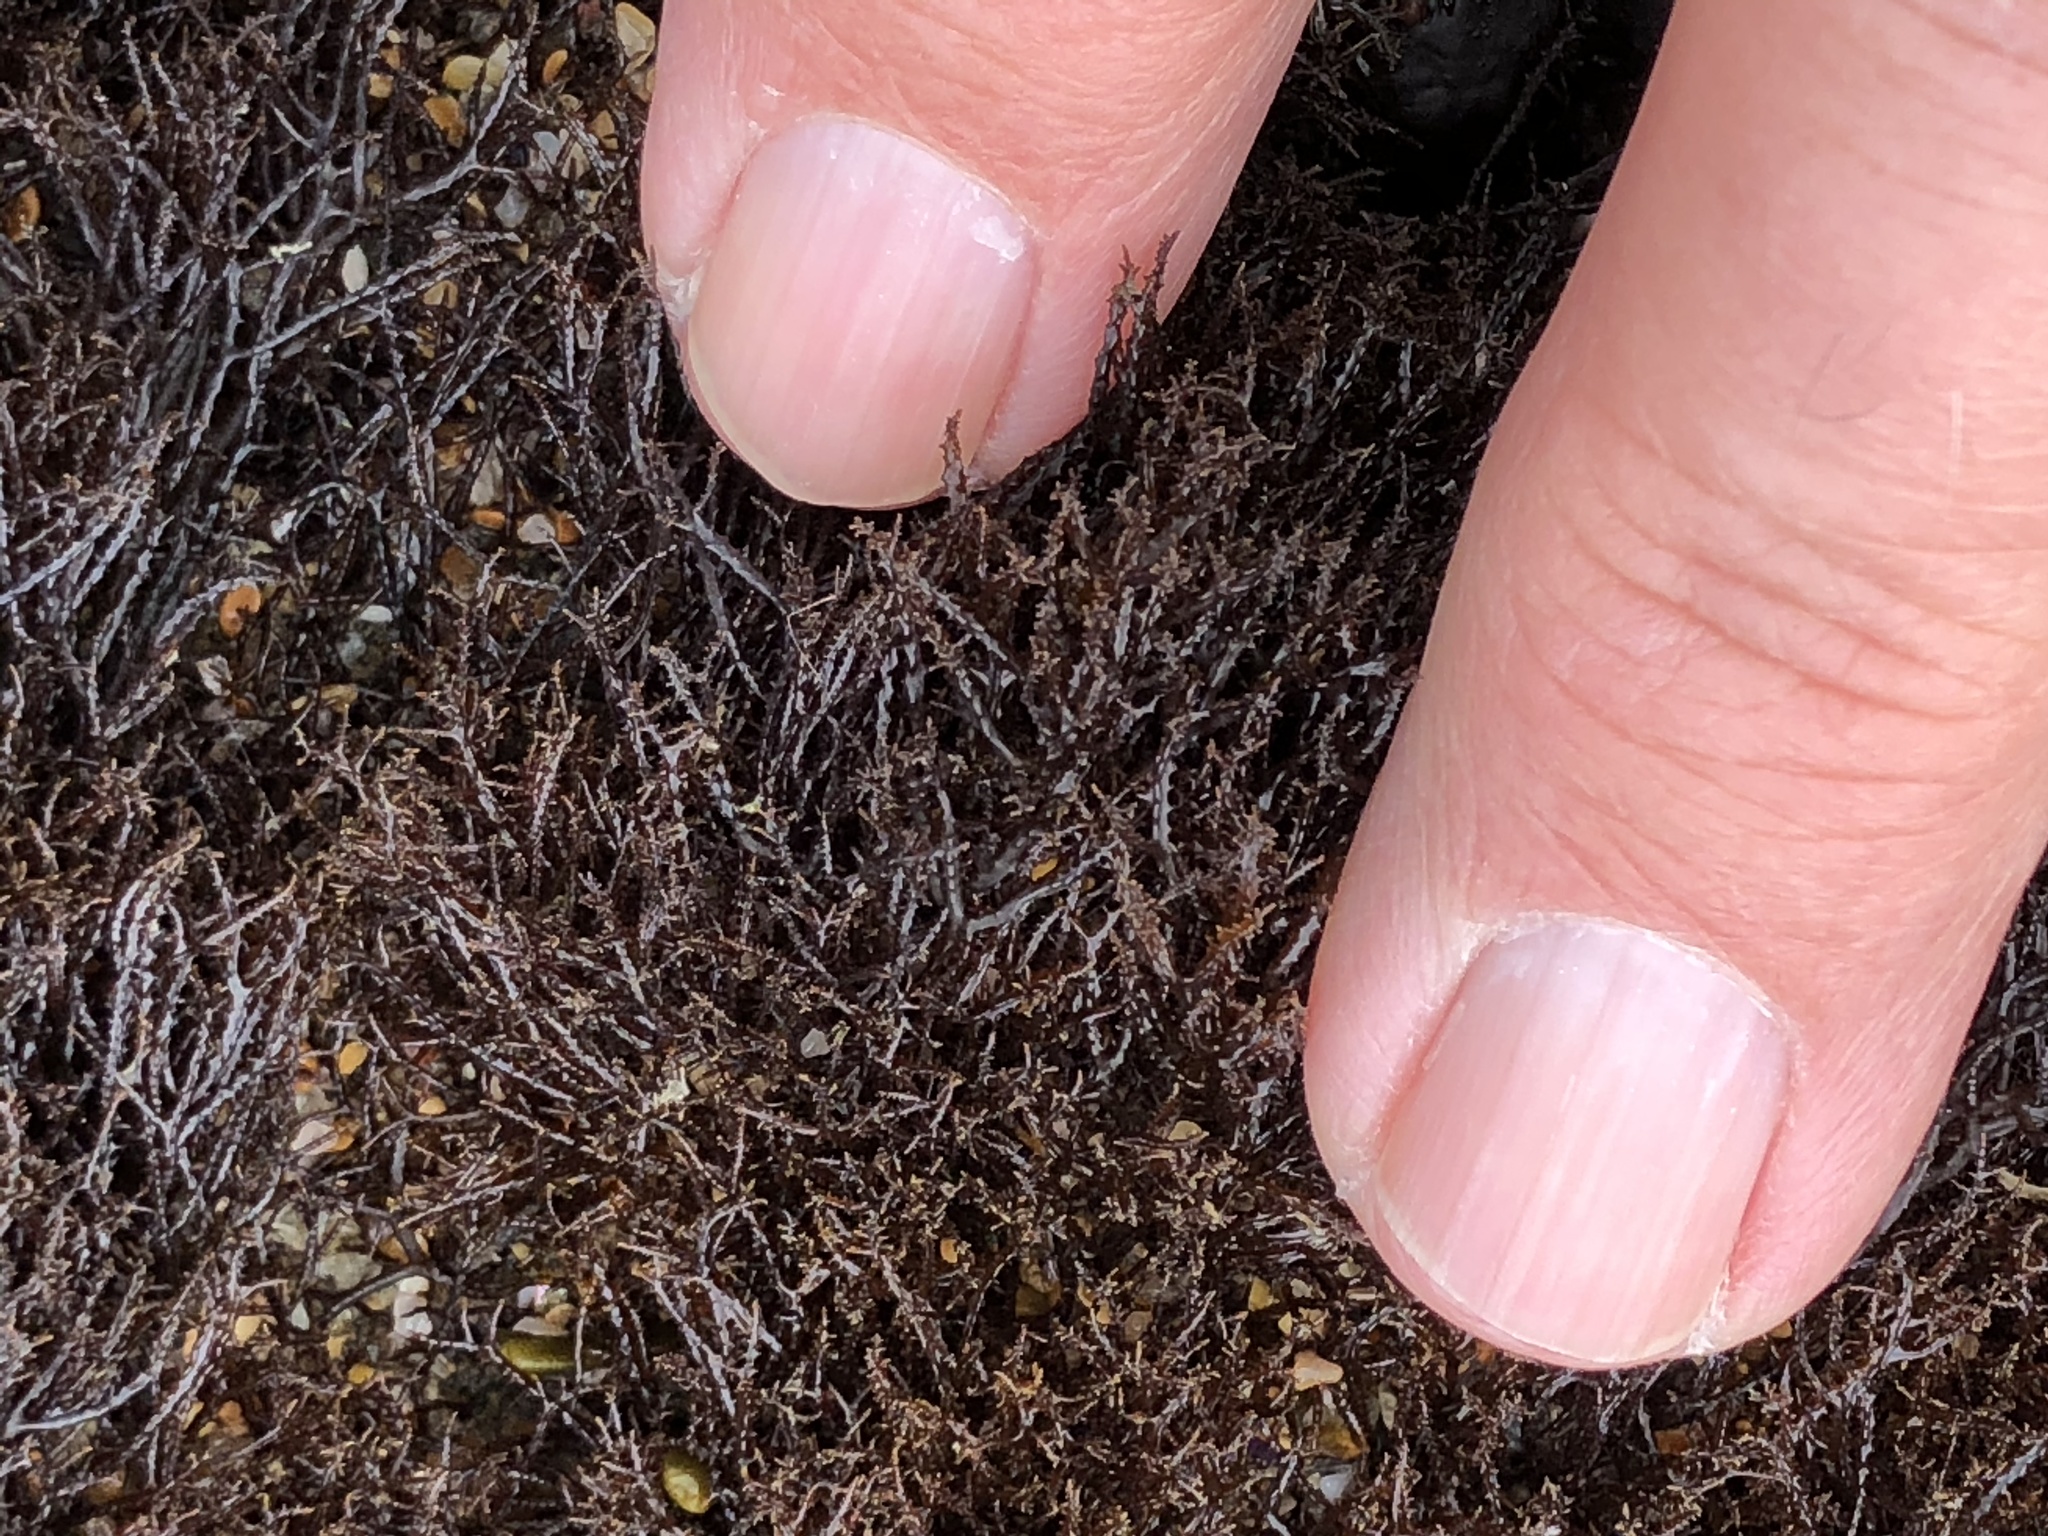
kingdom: Plantae
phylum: Rhodophyta
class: Florideophyceae
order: Gigartinales
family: Endocladiaceae
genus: Endocladia
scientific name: Endocladia muricata
